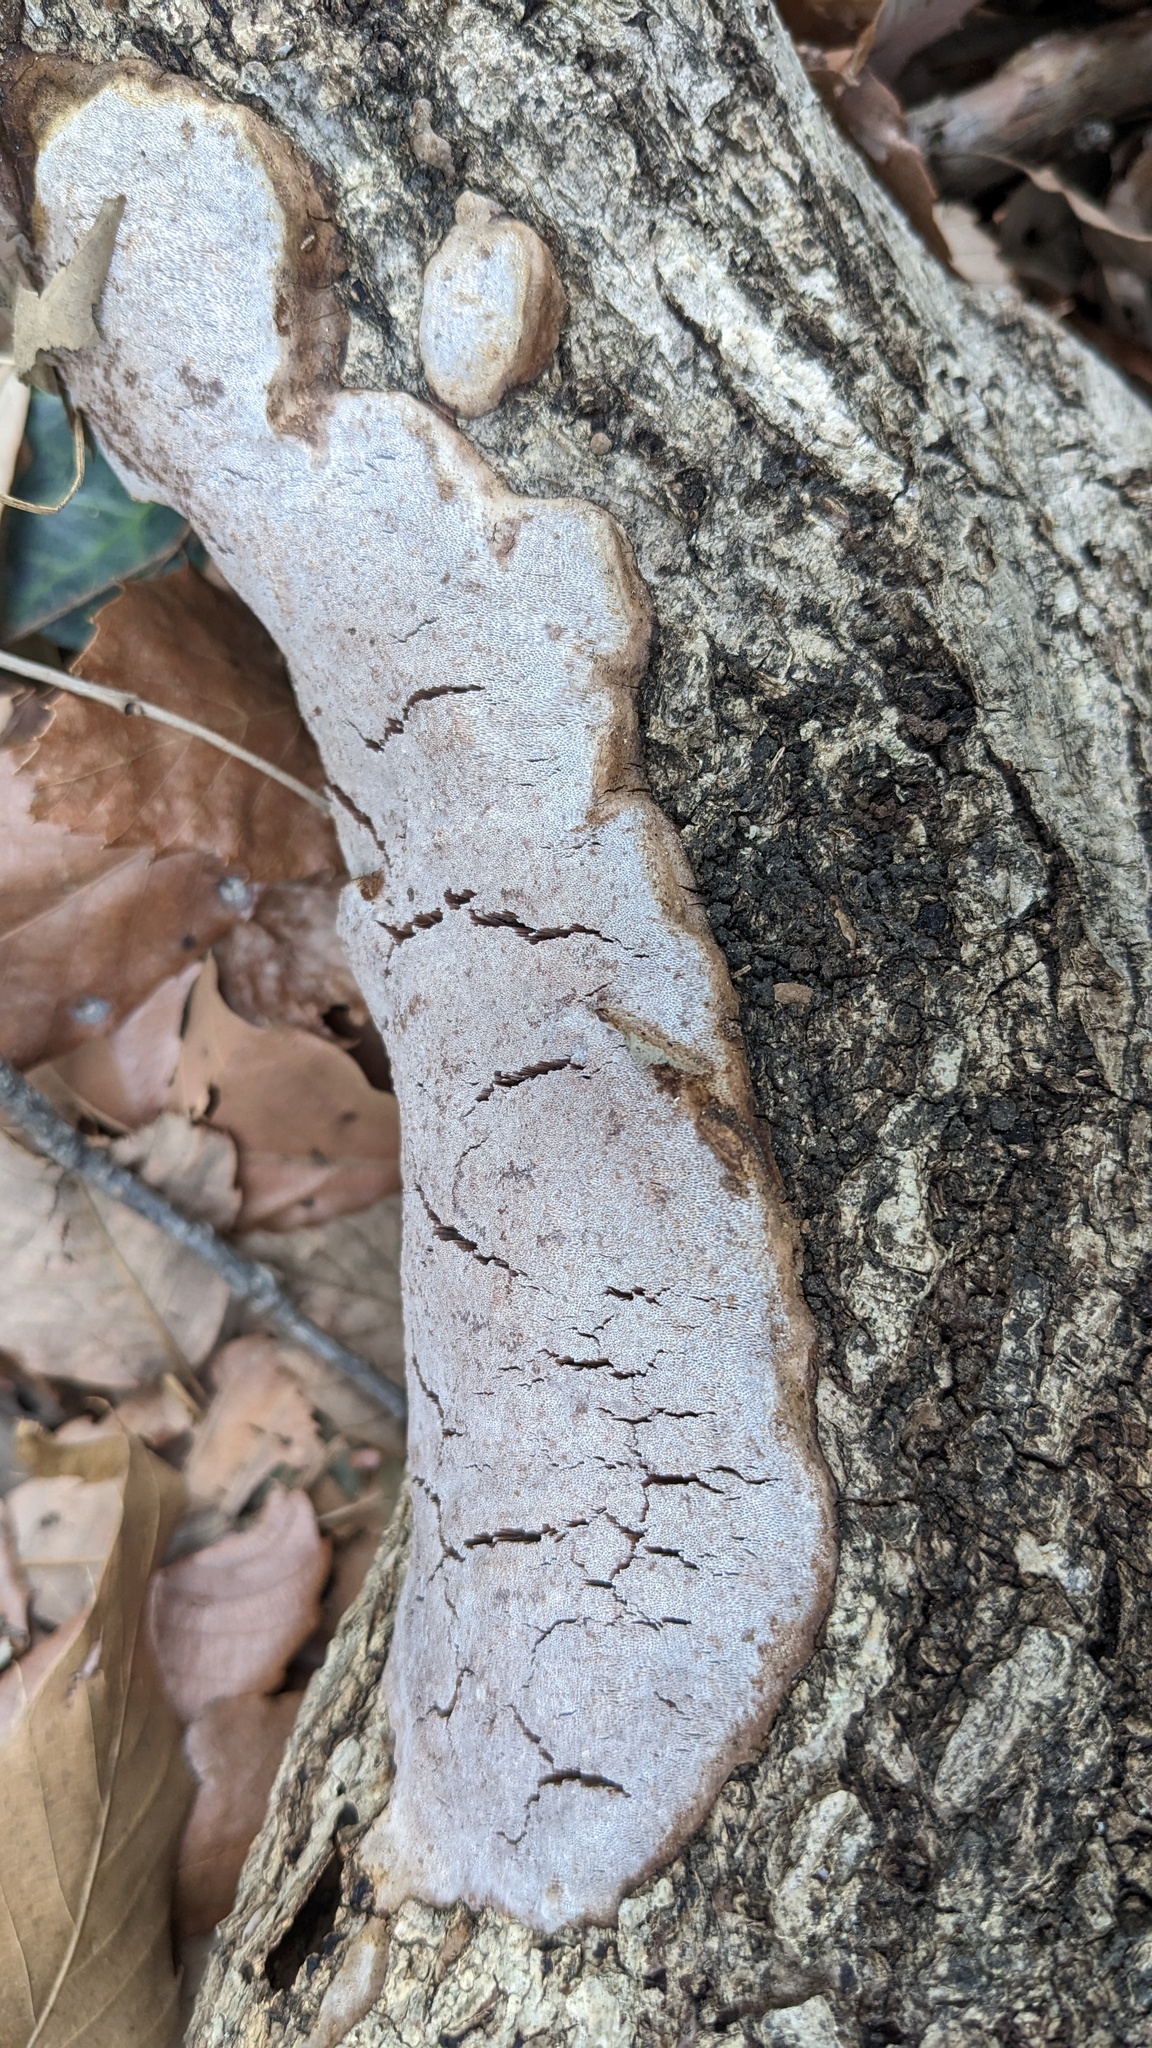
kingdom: Fungi
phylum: Basidiomycota
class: Agaricomycetes
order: Polyporales
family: Polyporaceae
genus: Abundisporus
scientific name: Abundisporus pubertatis
